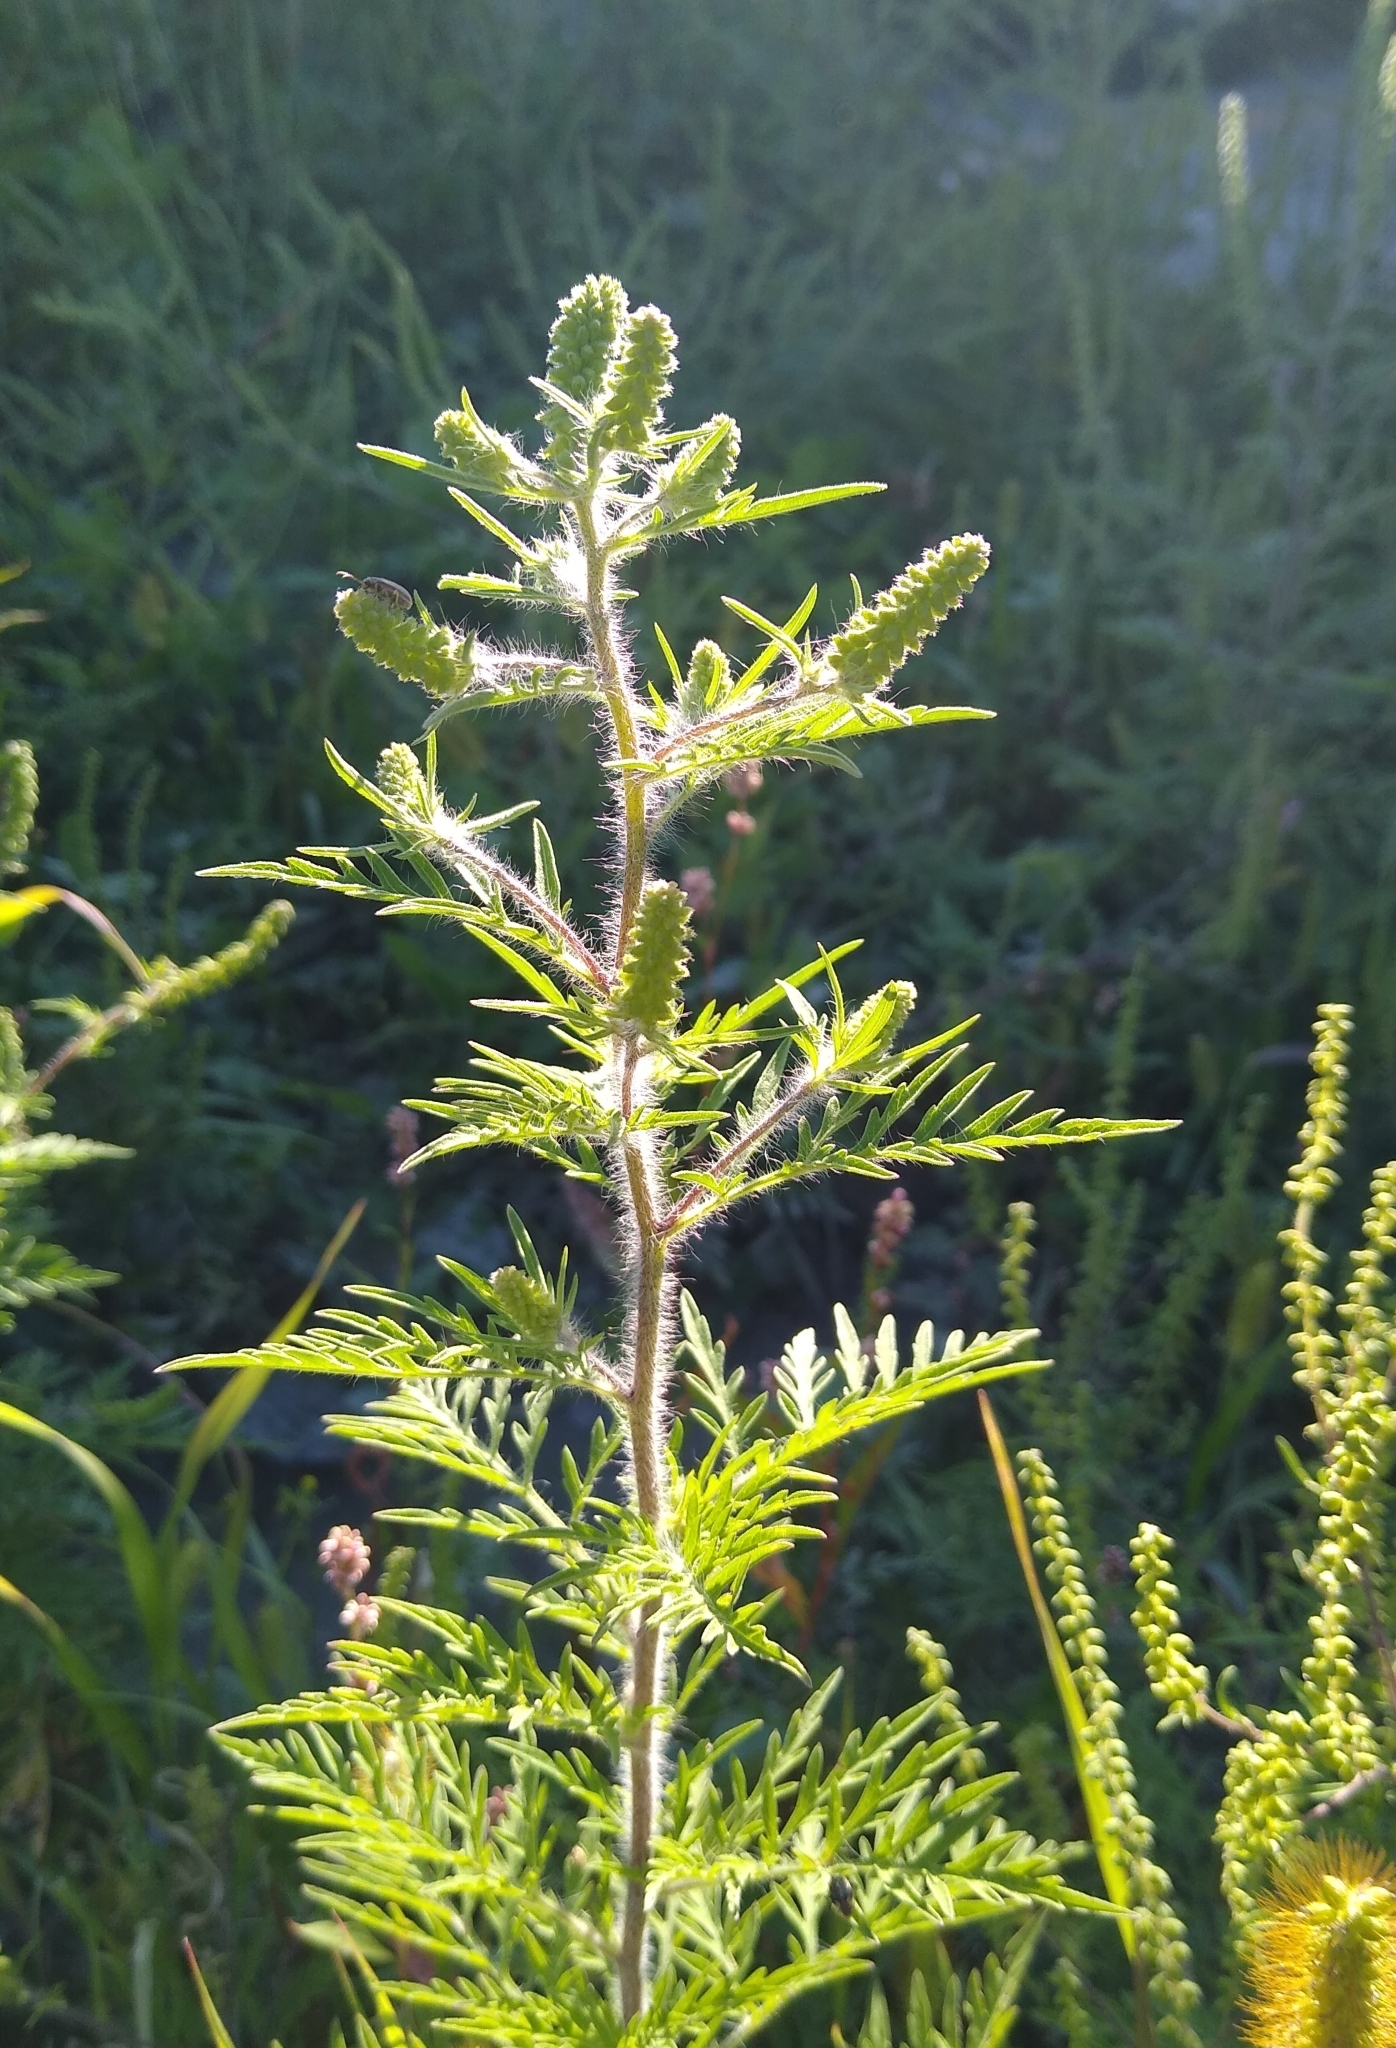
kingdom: Plantae
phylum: Tracheophyta
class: Magnoliopsida
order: Asterales
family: Asteraceae
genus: Ambrosia
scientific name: Ambrosia artemisiifolia
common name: Annual ragweed
